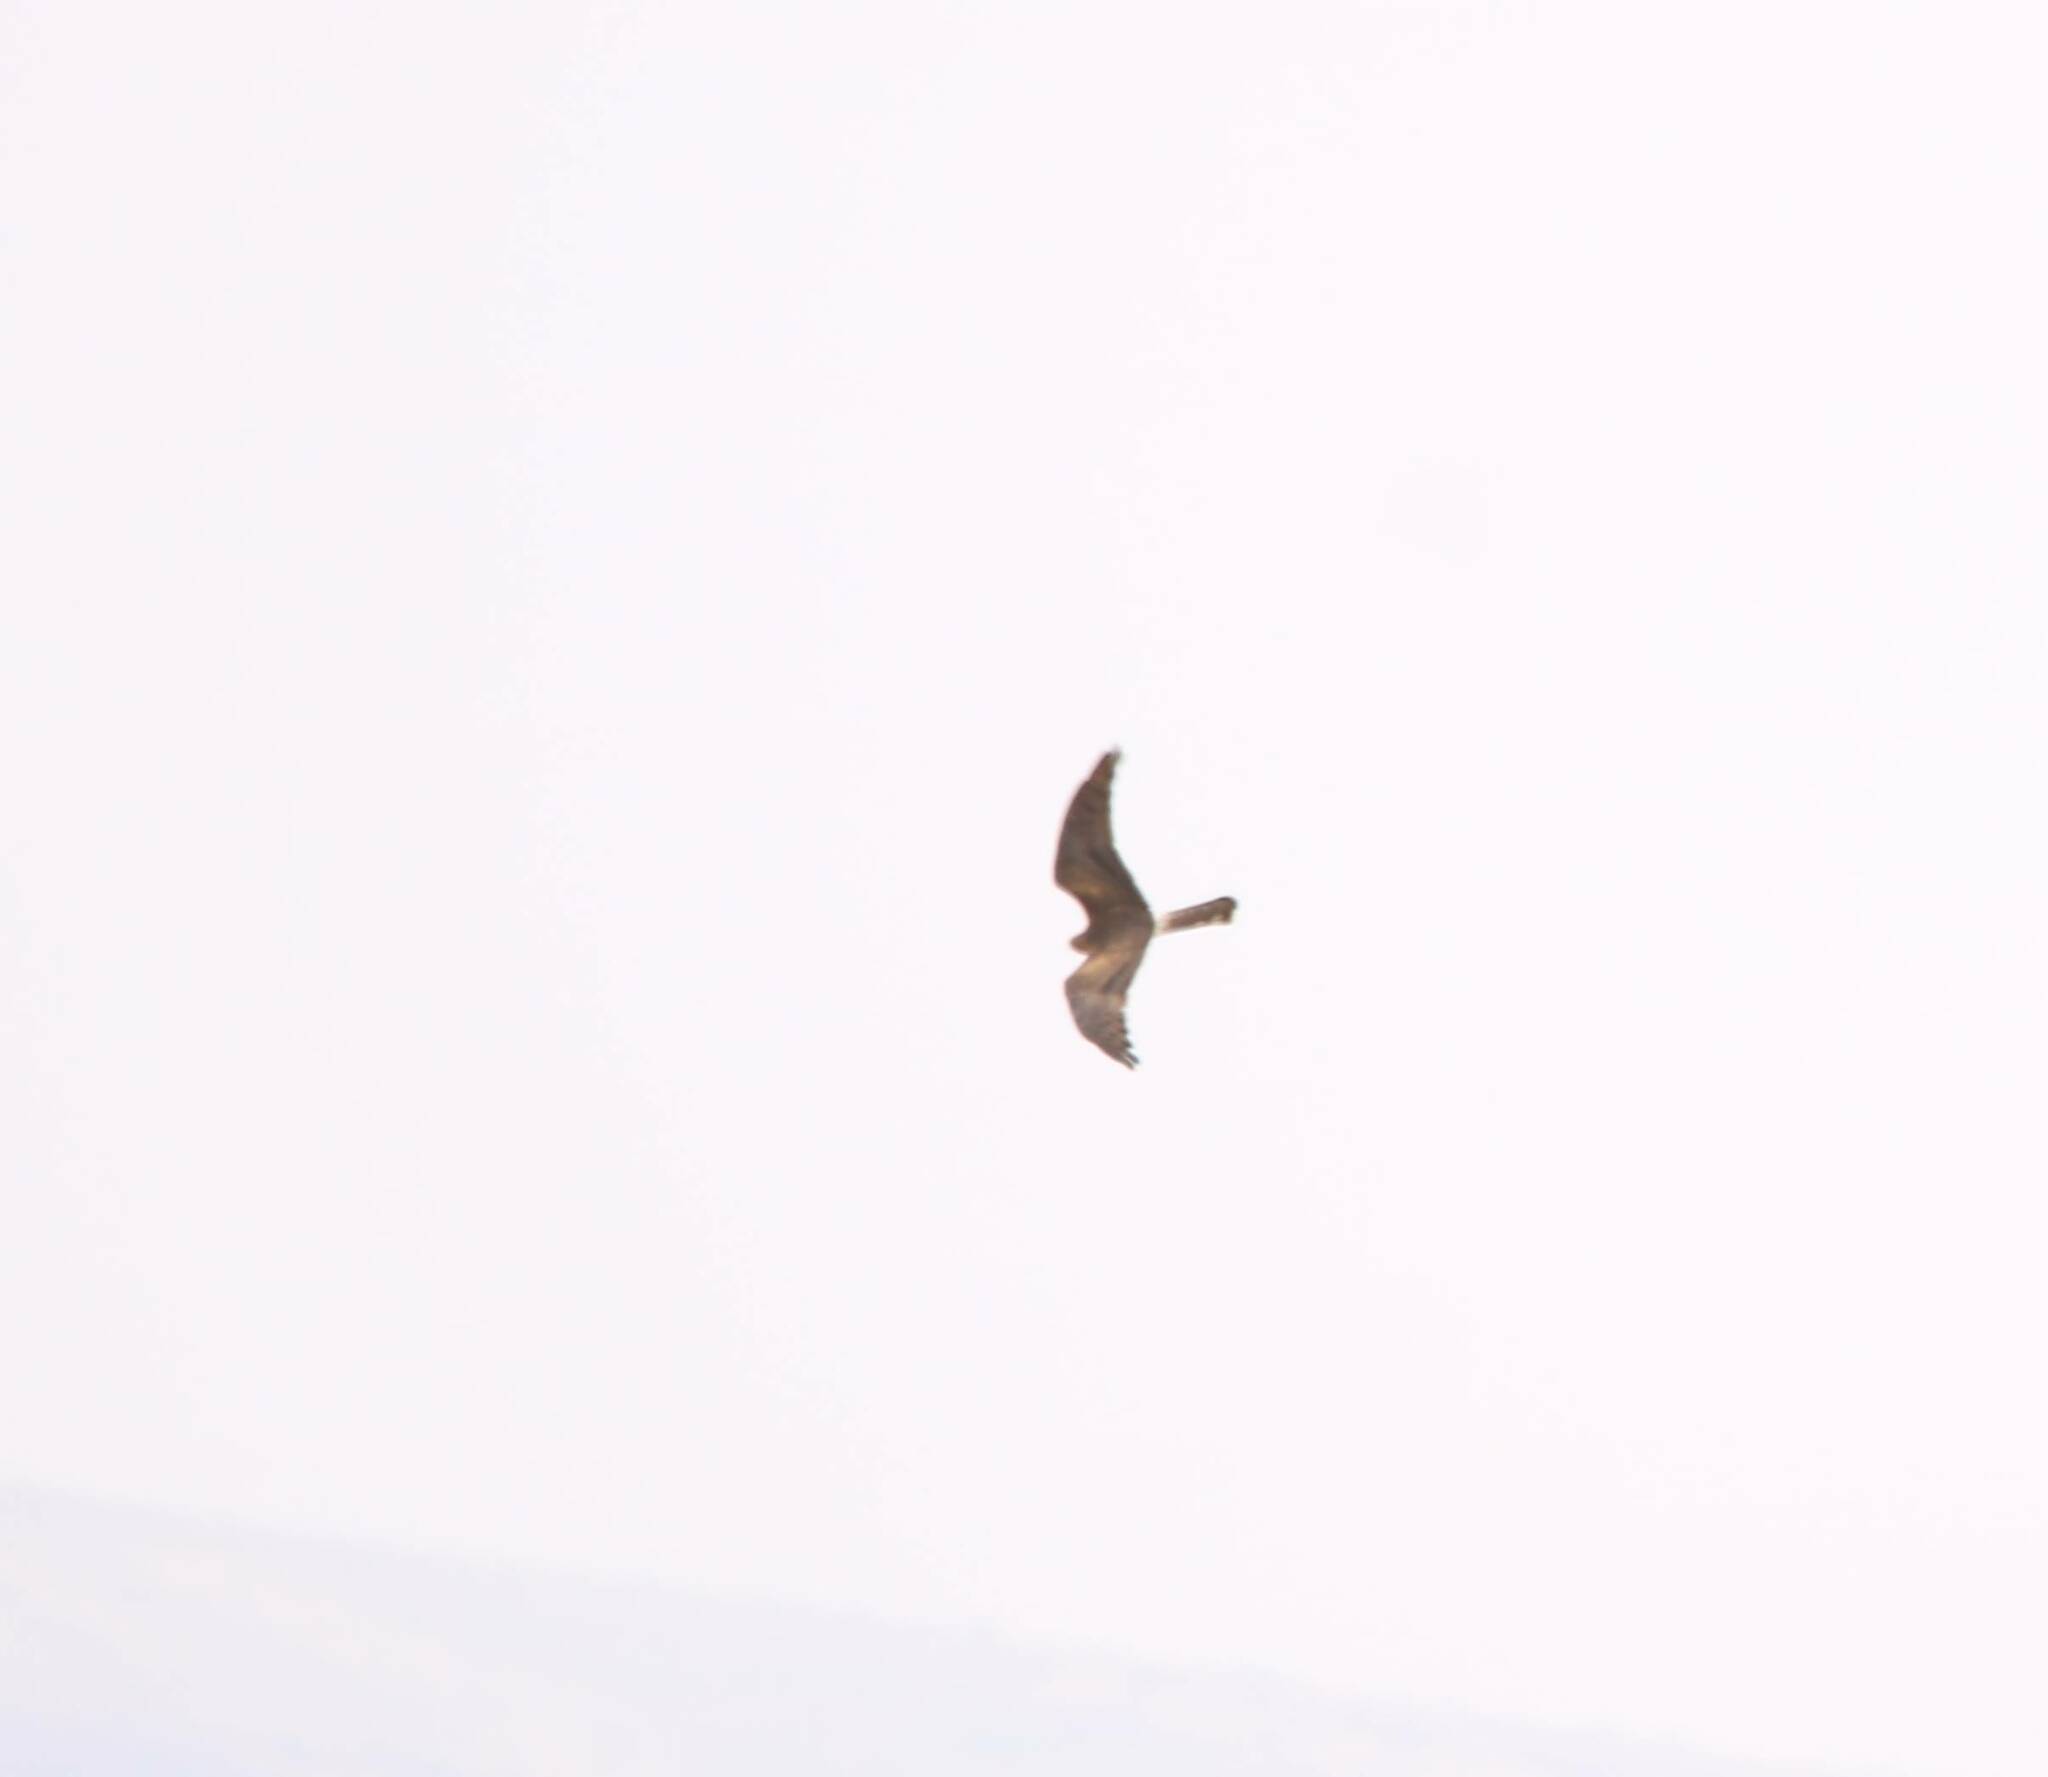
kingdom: Animalia
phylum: Chordata
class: Aves
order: Accipitriformes
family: Accipitridae
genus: Circus
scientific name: Circus pygargus
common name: Montagu's harrier
